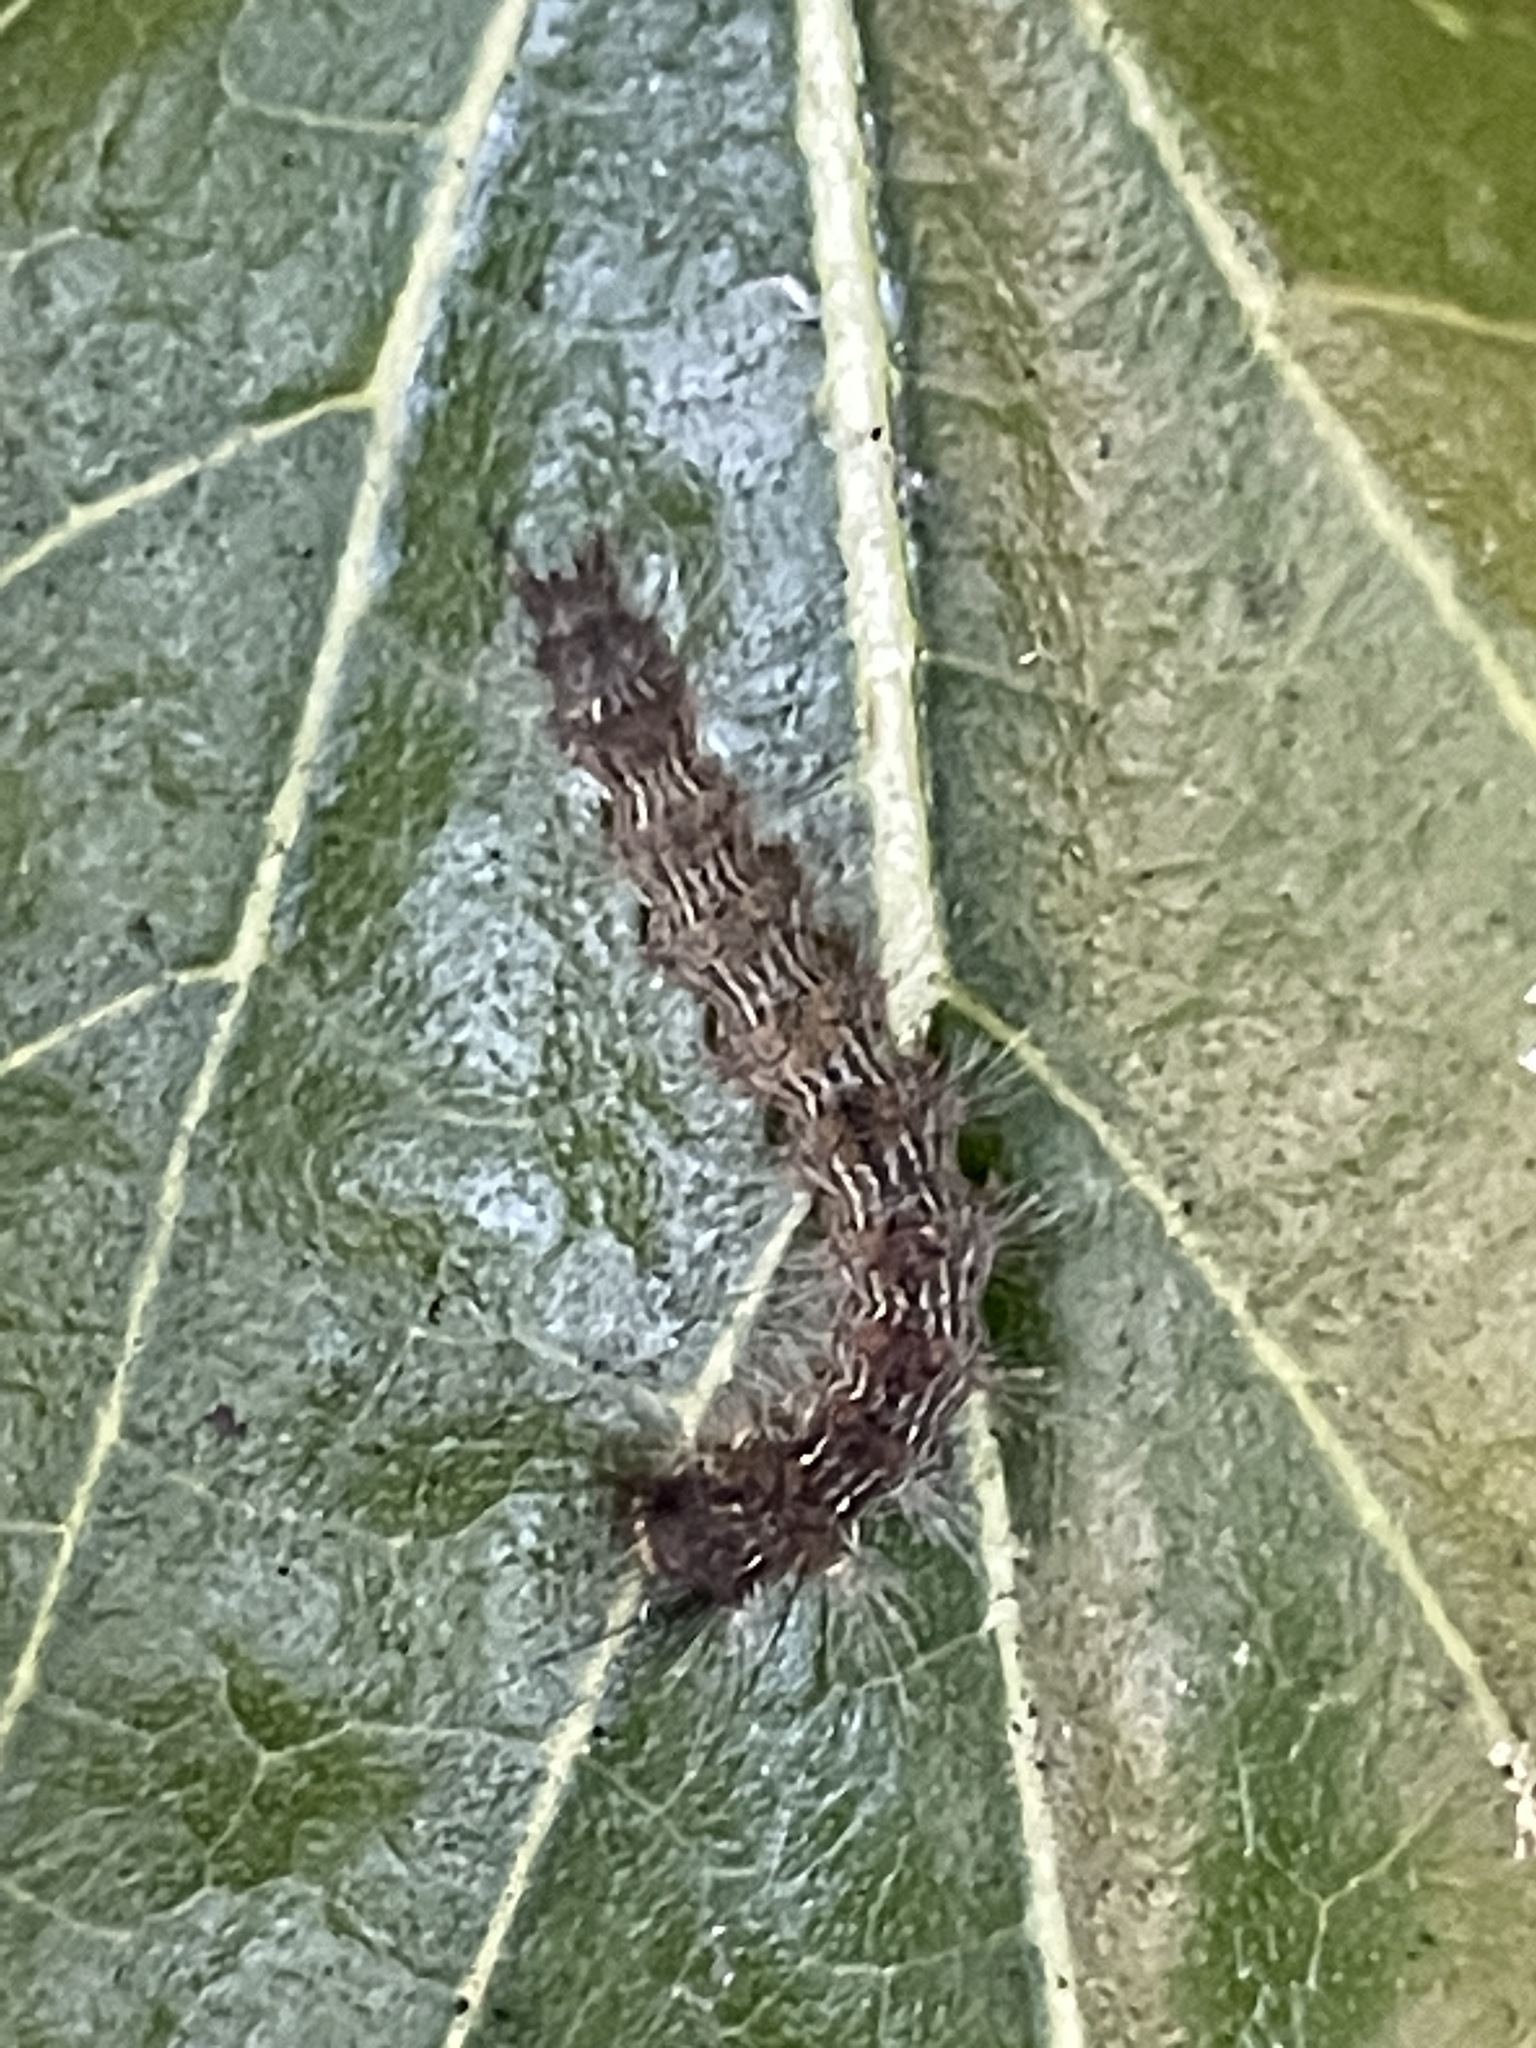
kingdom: Animalia
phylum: Arthropoda
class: Insecta
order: Lepidoptera
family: Nymphalidae
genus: Vanessa
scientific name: Vanessa kershawi
